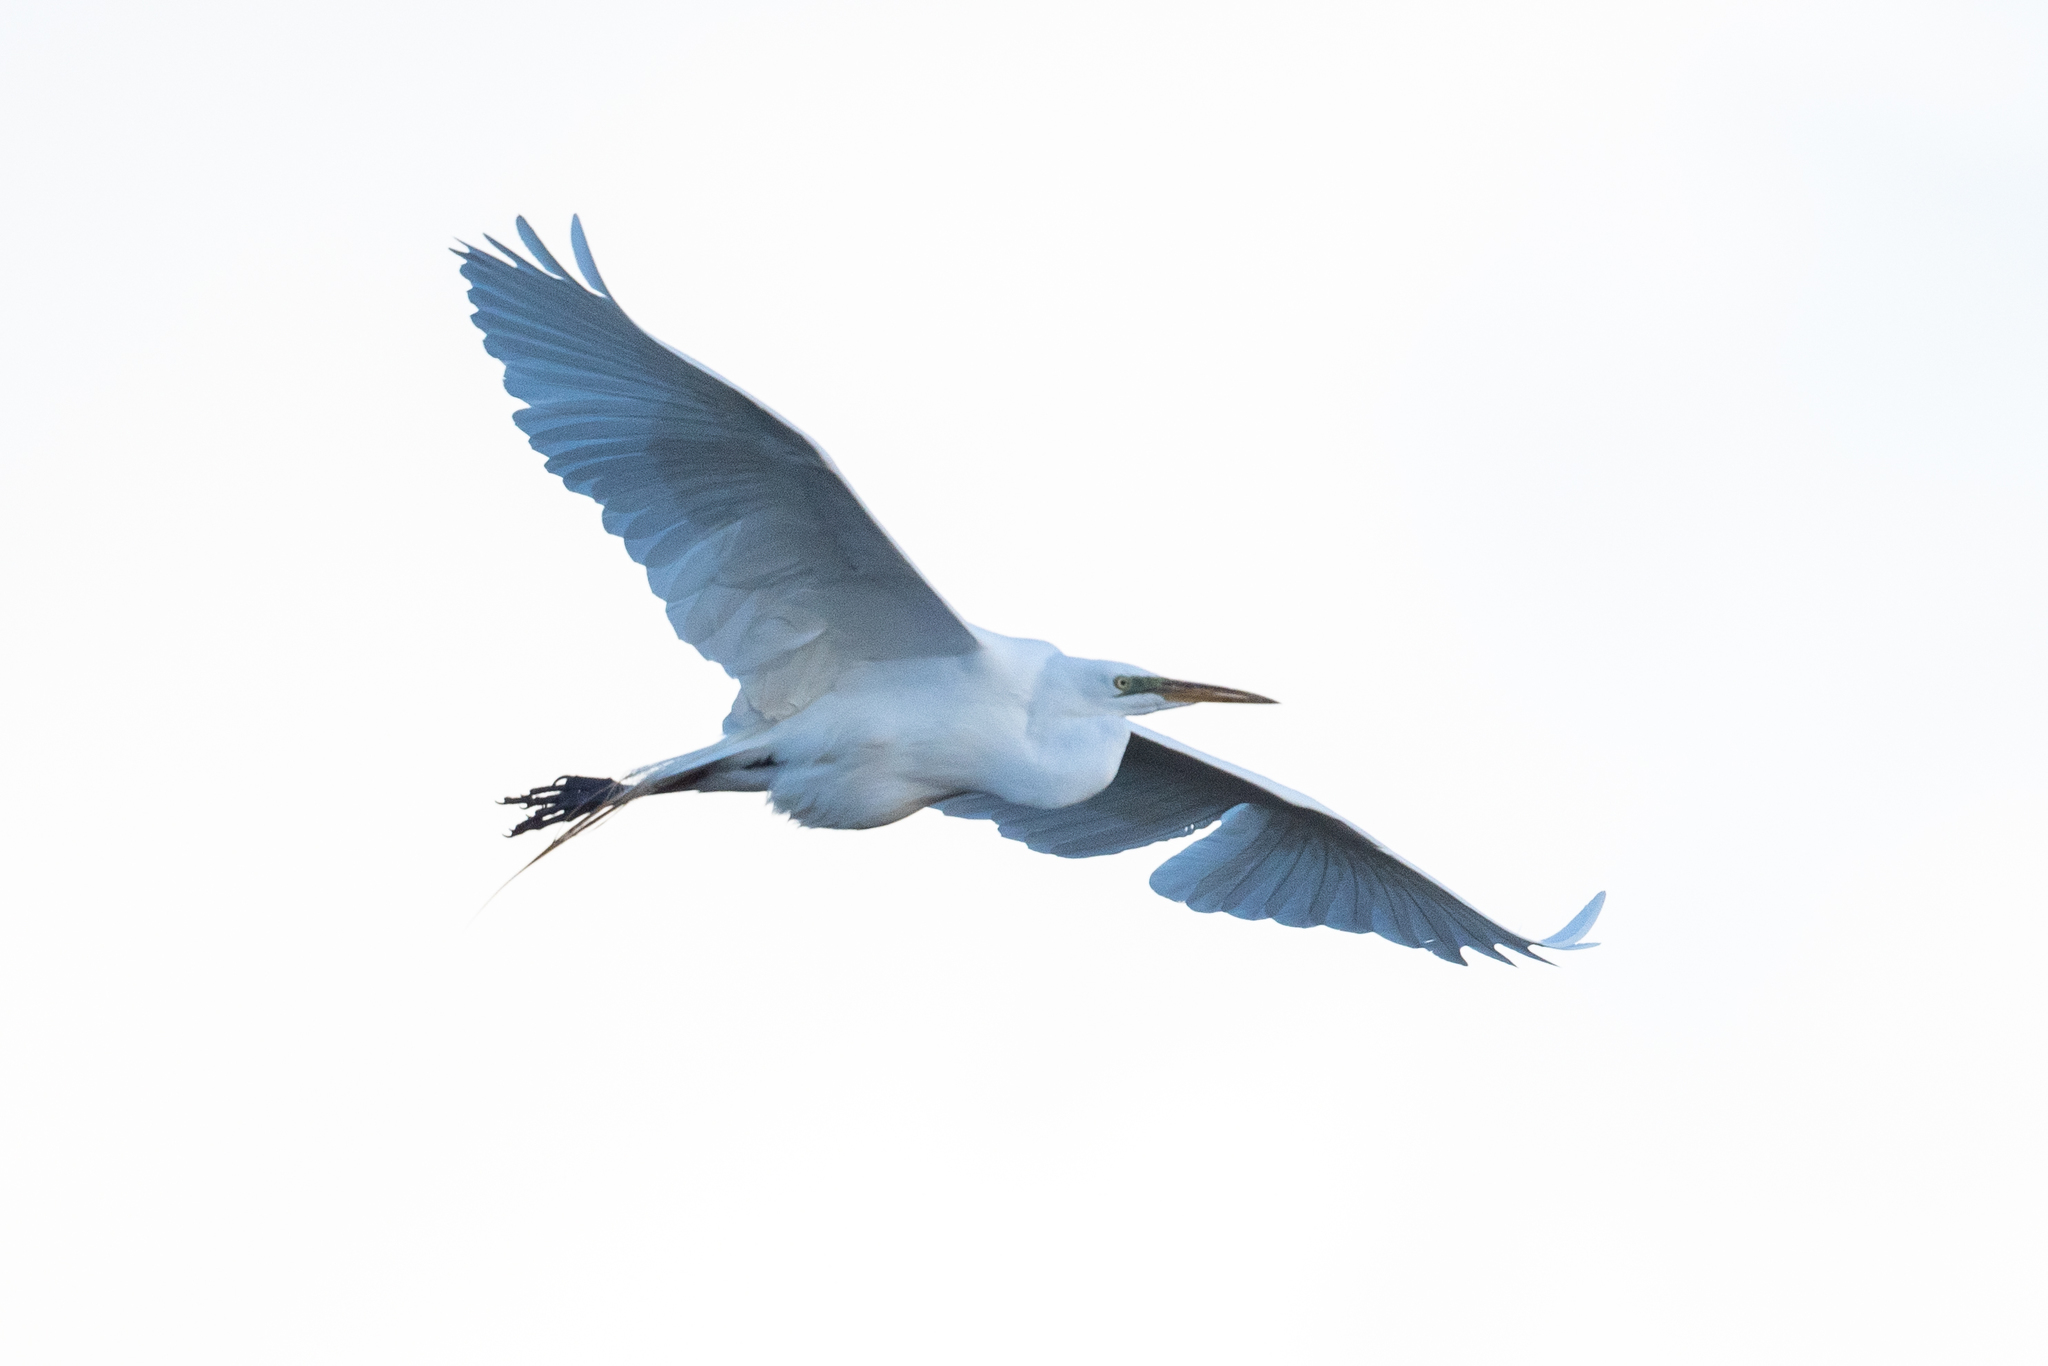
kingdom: Animalia
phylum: Chordata
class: Aves
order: Pelecaniformes
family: Ardeidae
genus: Ardea
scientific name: Ardea alba
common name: Great egret
